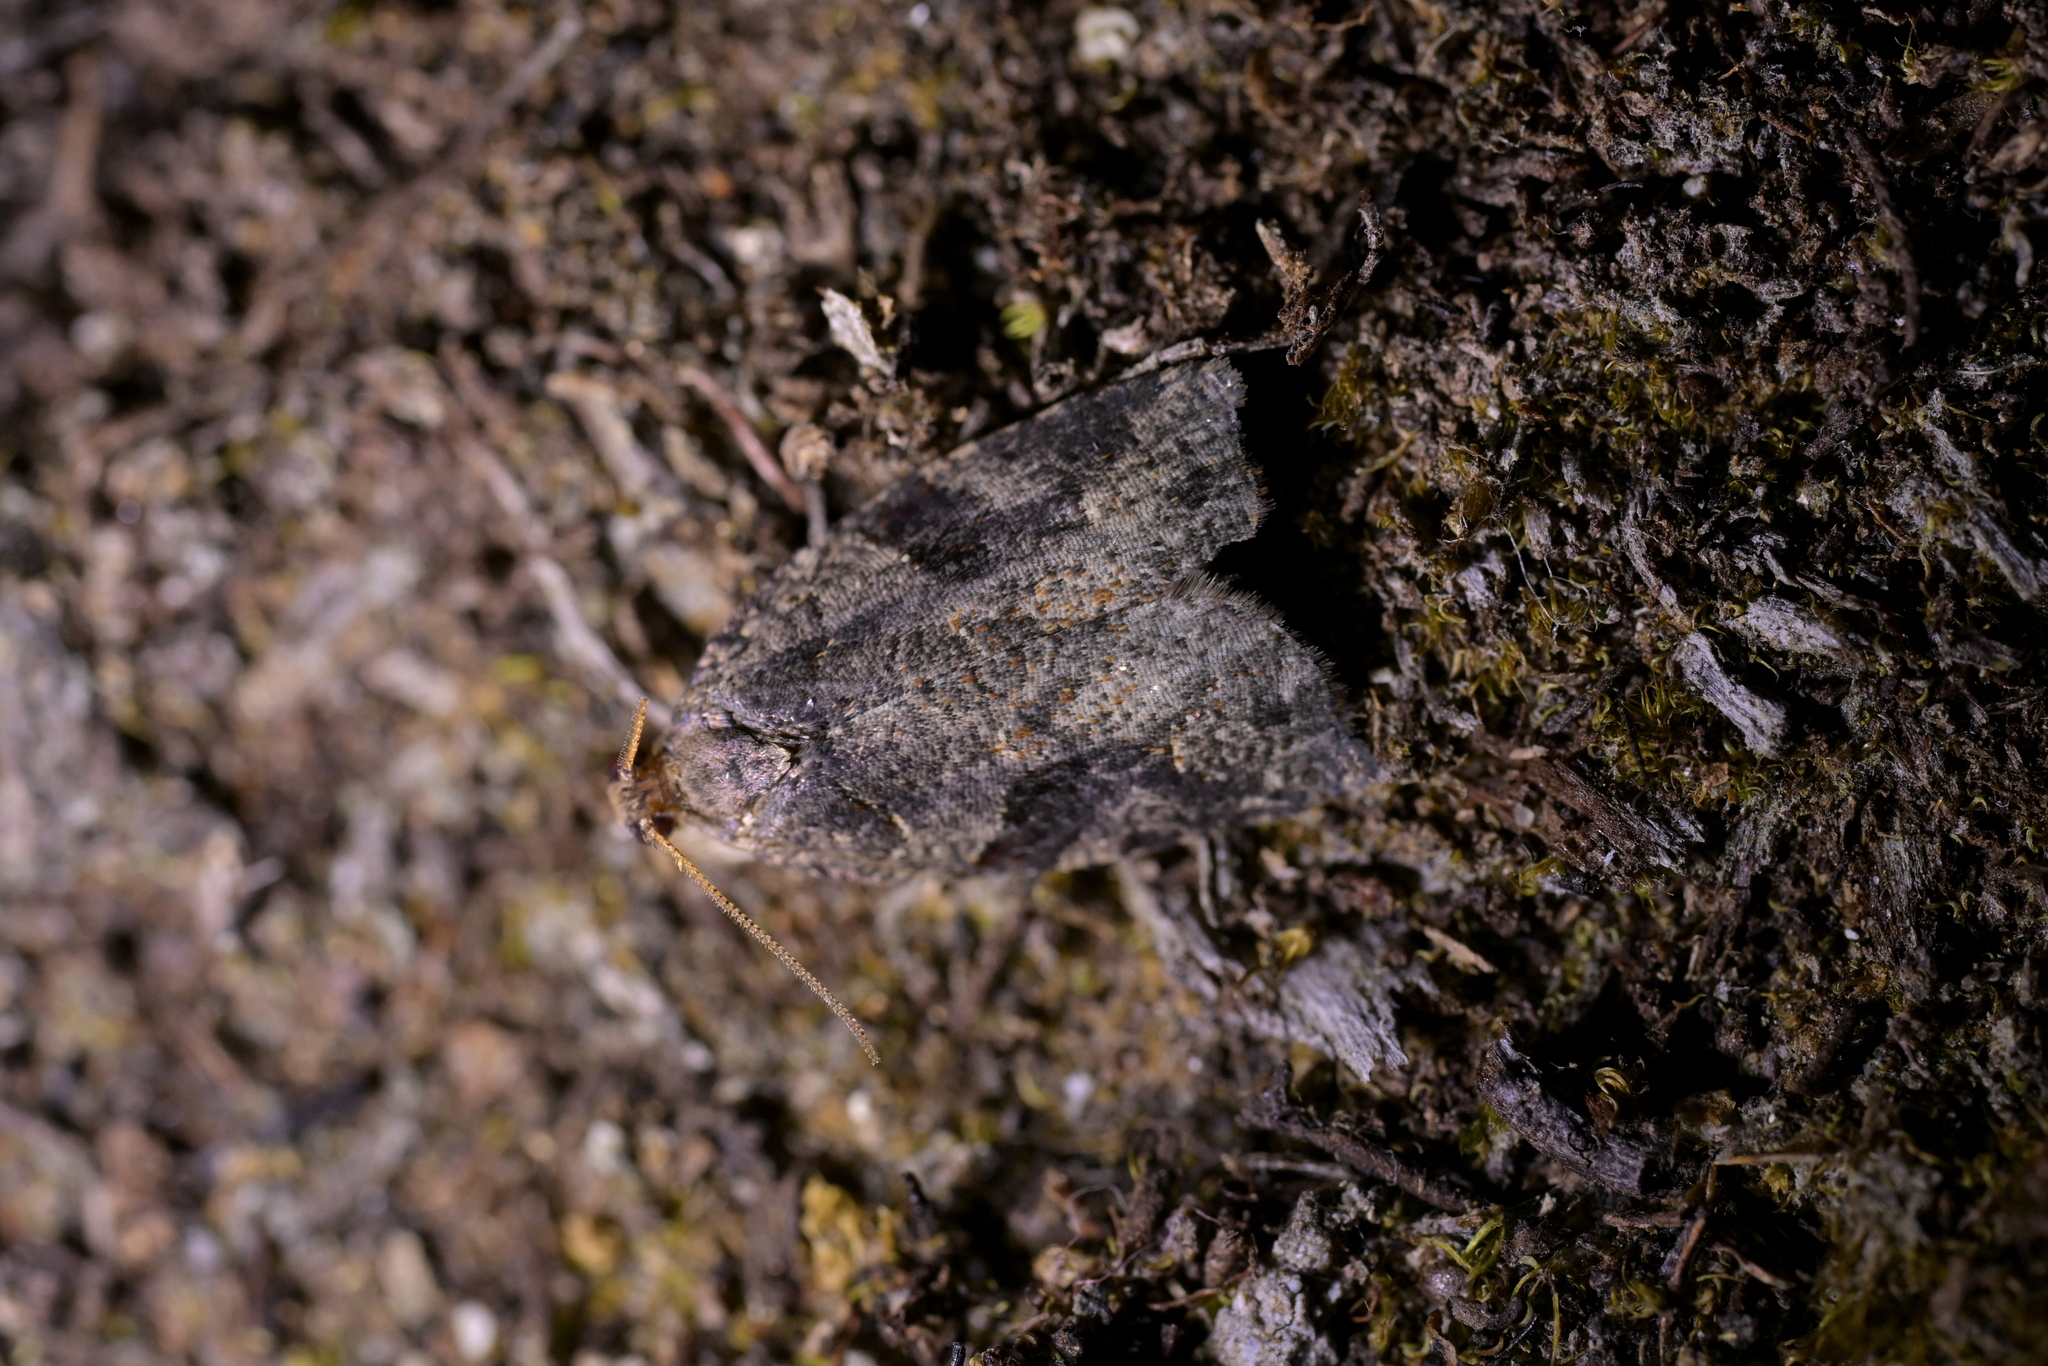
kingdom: Animalia
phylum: Arthropoda
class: Insecta
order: Lepidoptera
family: Tortricidae
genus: Apoctena
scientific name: Apoctena orthropis
